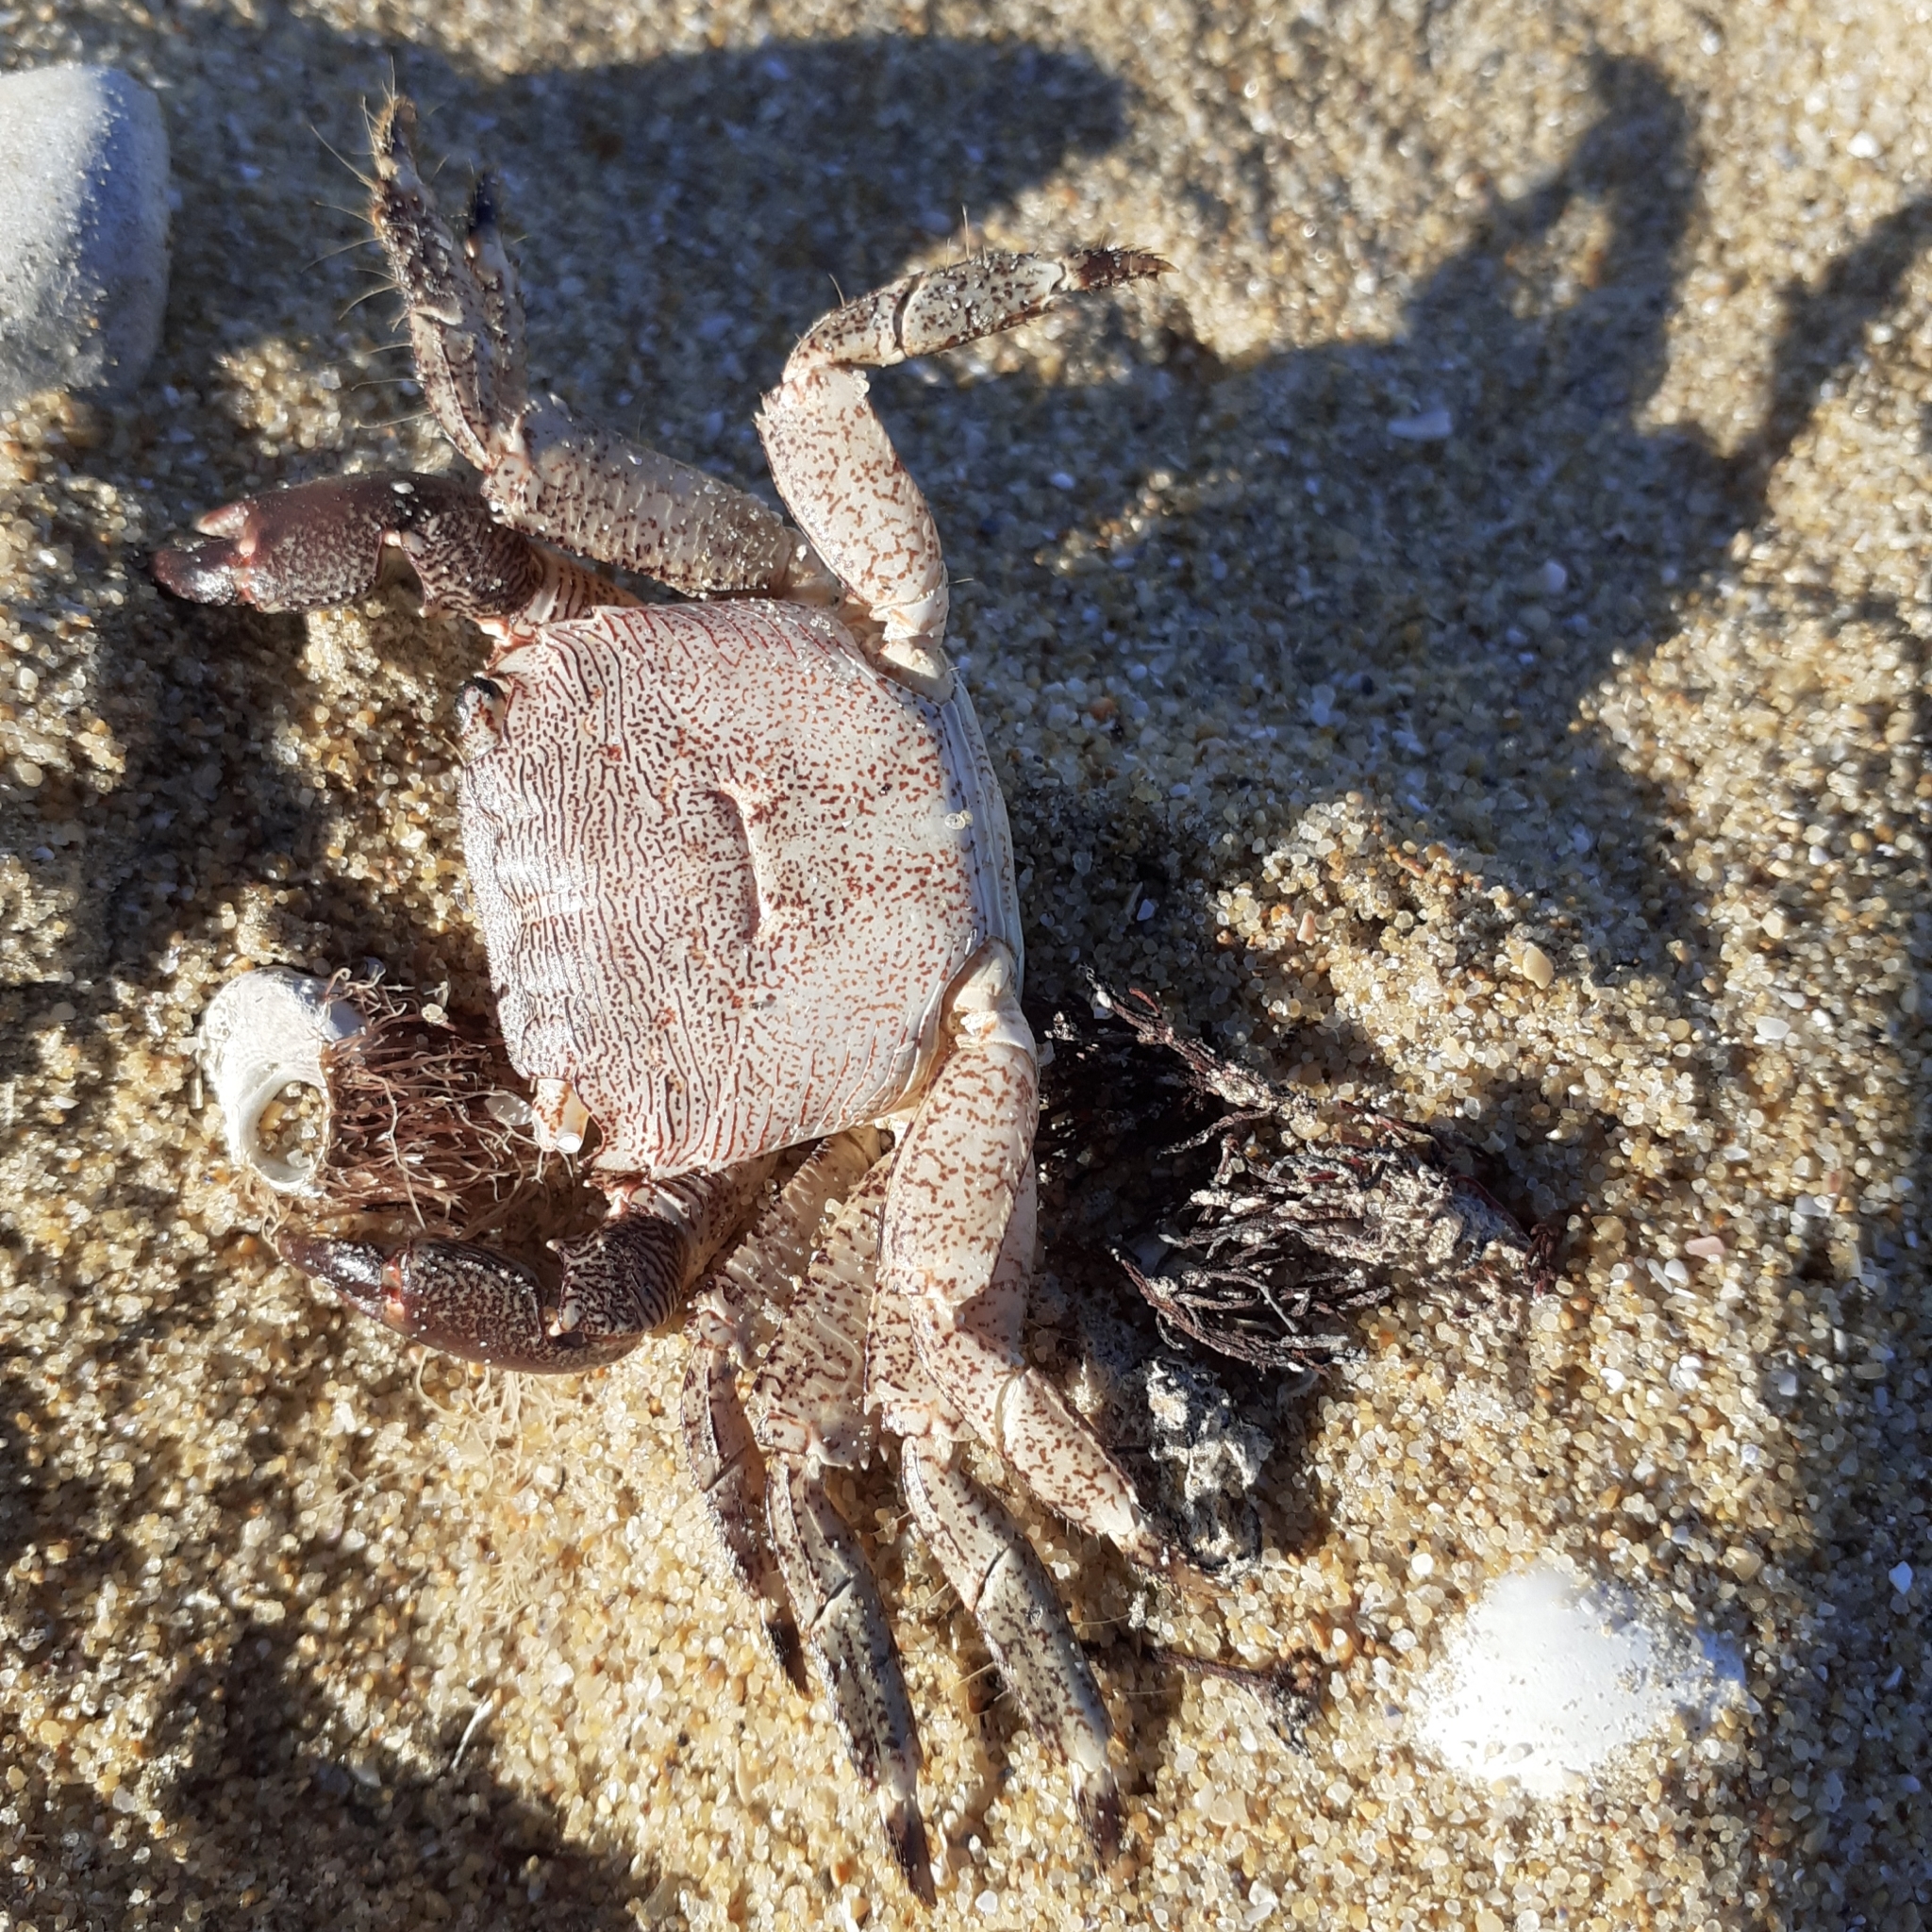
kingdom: Animalia
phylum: Arthropoda
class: Malacostraca
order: Decapoda
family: Grapsidae
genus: Pachygrapsus
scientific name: Pachygrapsus marmoratus
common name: Marbled rock crab
